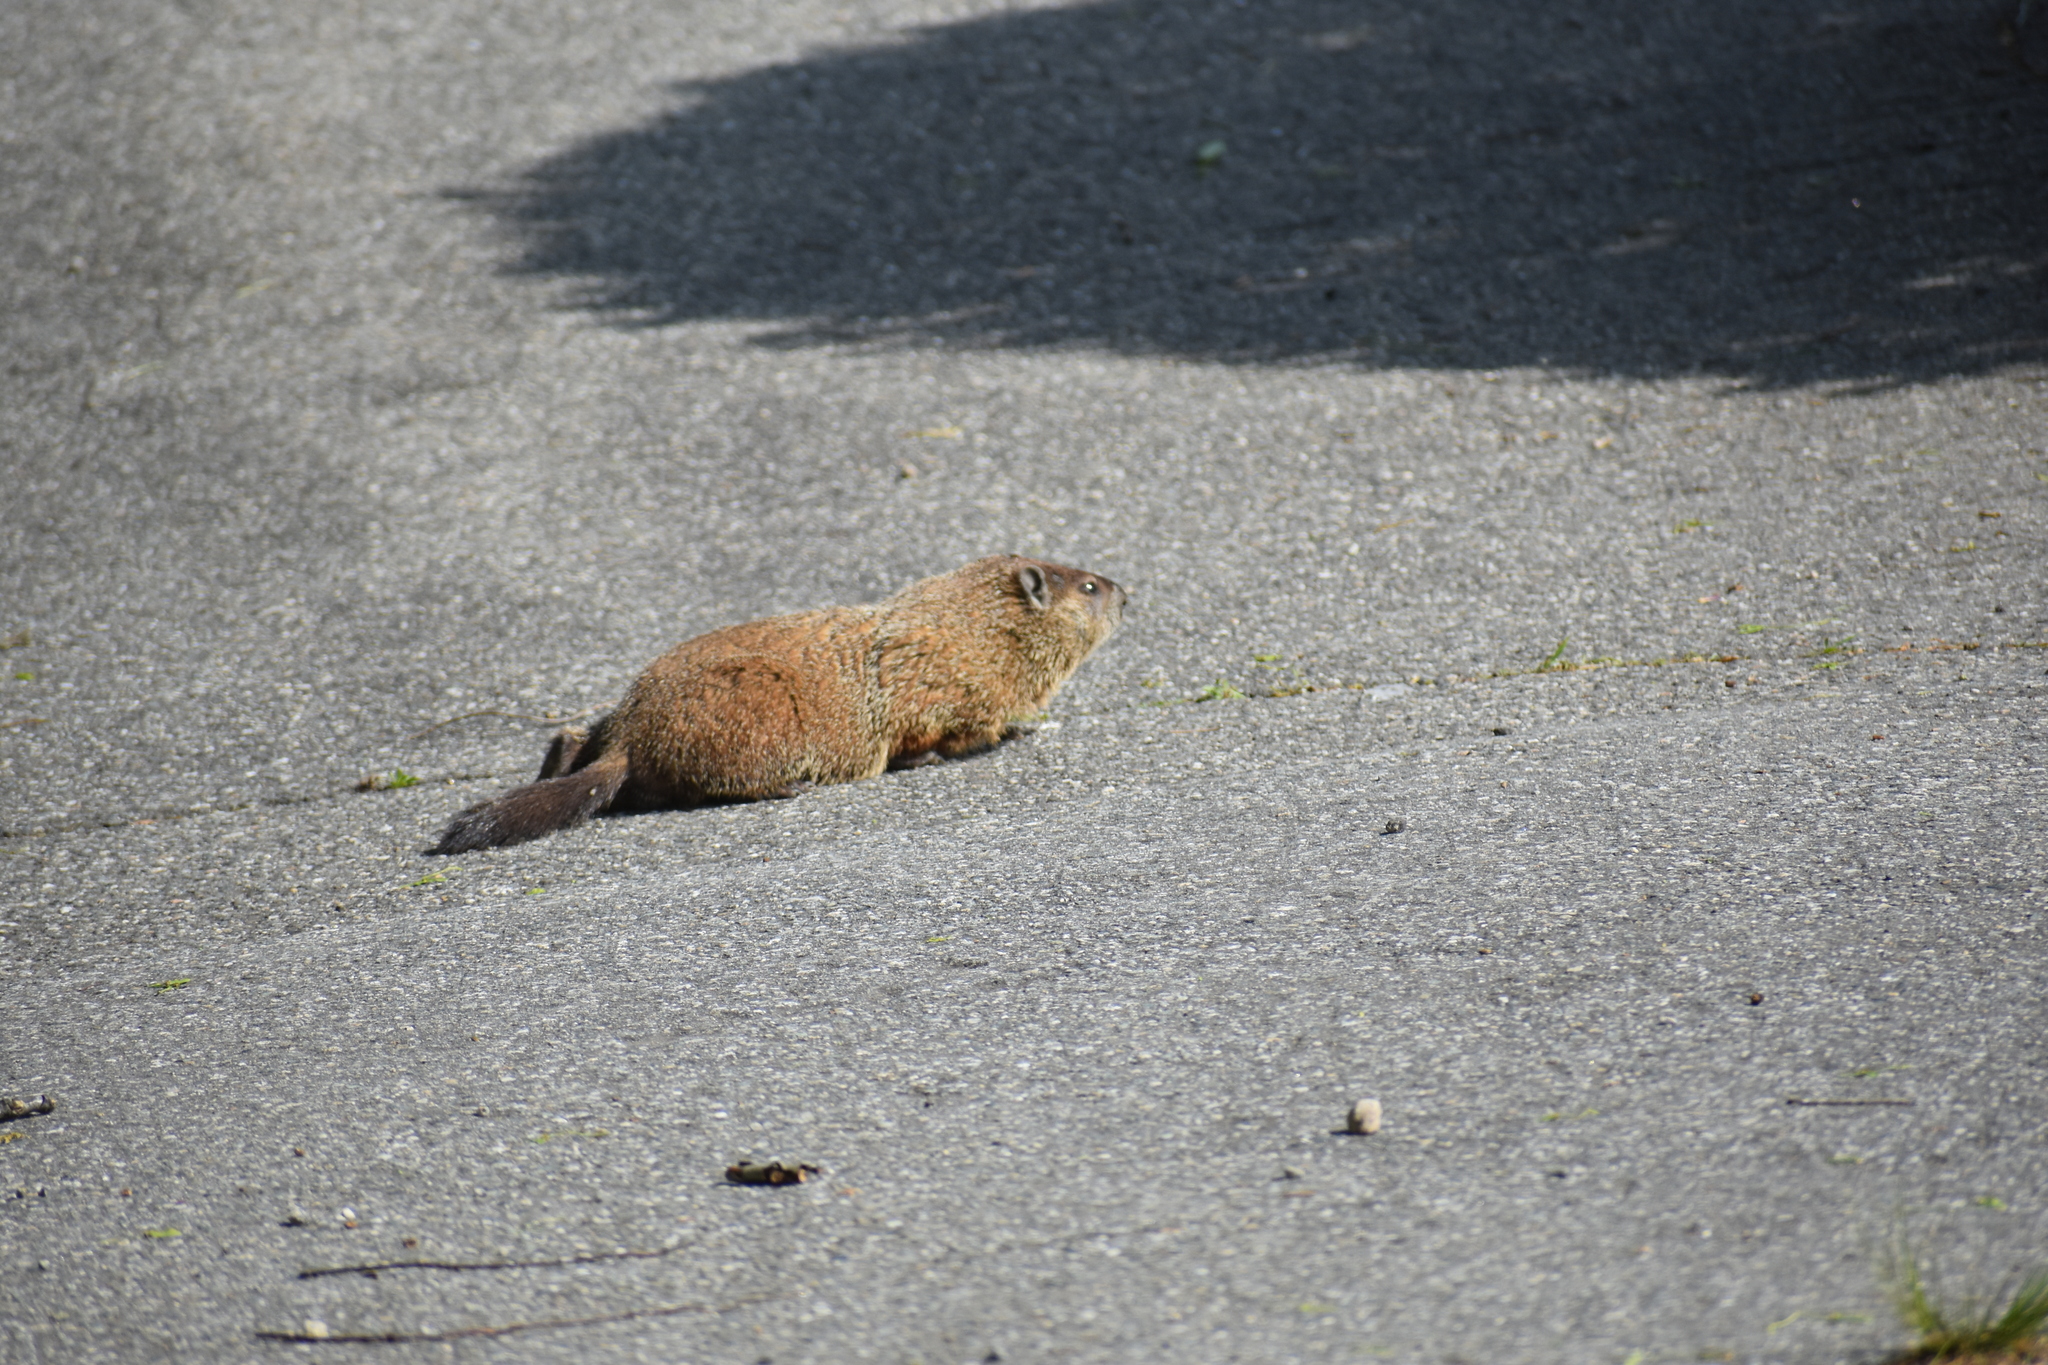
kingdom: Animalia
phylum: Chordata
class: Mammalia
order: Rodentia
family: Sciuridae
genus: Marmota
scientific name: Marmota monax
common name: Groundhog
